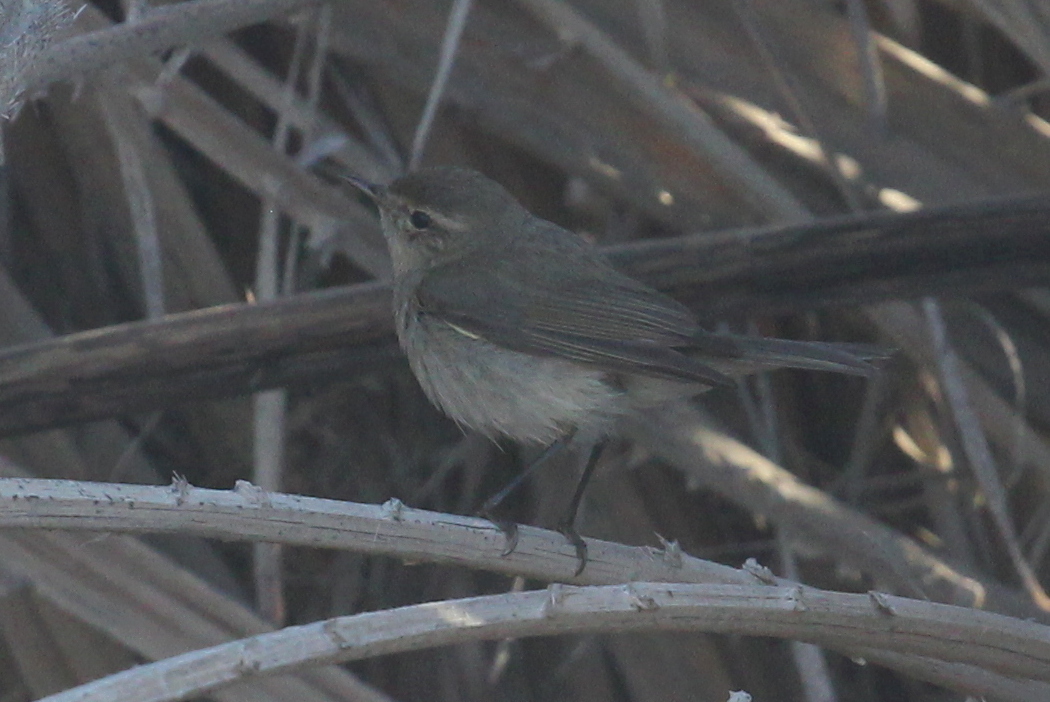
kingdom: Animalia
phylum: Chordata
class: Aves
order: Passeriformes
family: Phylloscopidae
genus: Phylloscopus
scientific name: Phylloscopus collybita
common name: Common chiffchaff
